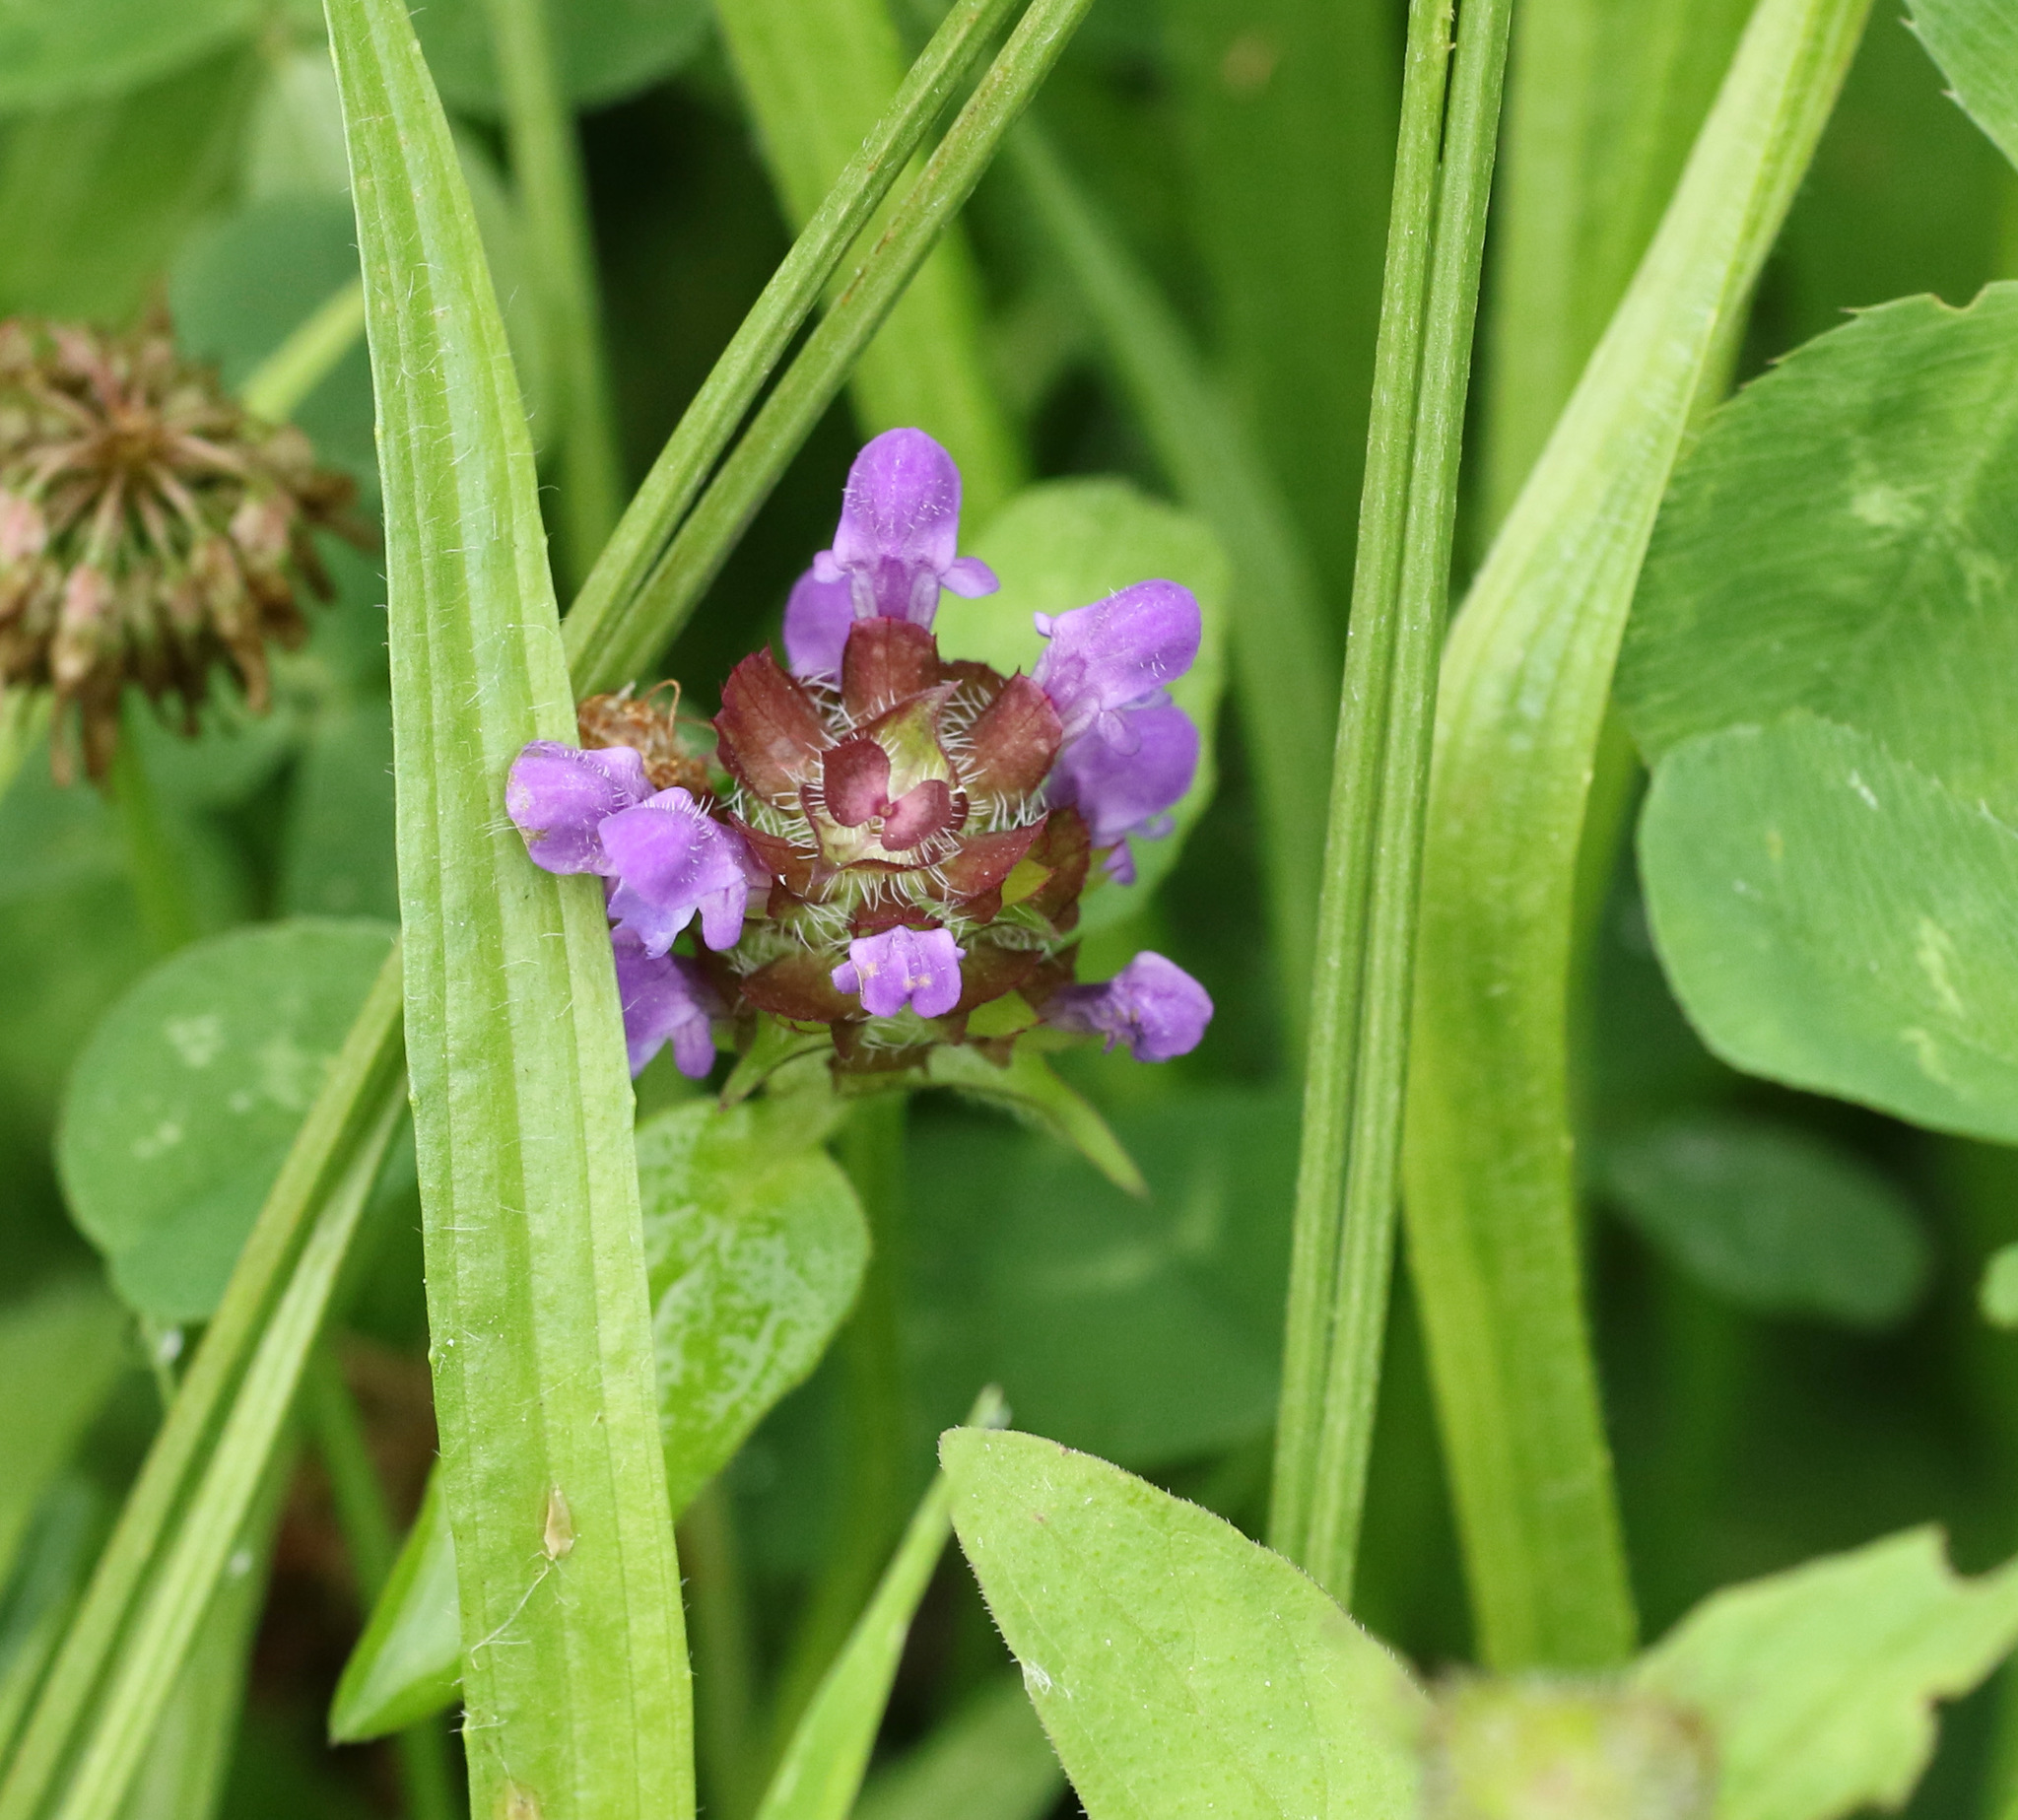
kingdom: Plantae
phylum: Tracheophyta
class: Magnoliopsida
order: Lamiales
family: Lamiaceae
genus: Prunella
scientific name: Prunella vulgaris
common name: Heal-all
